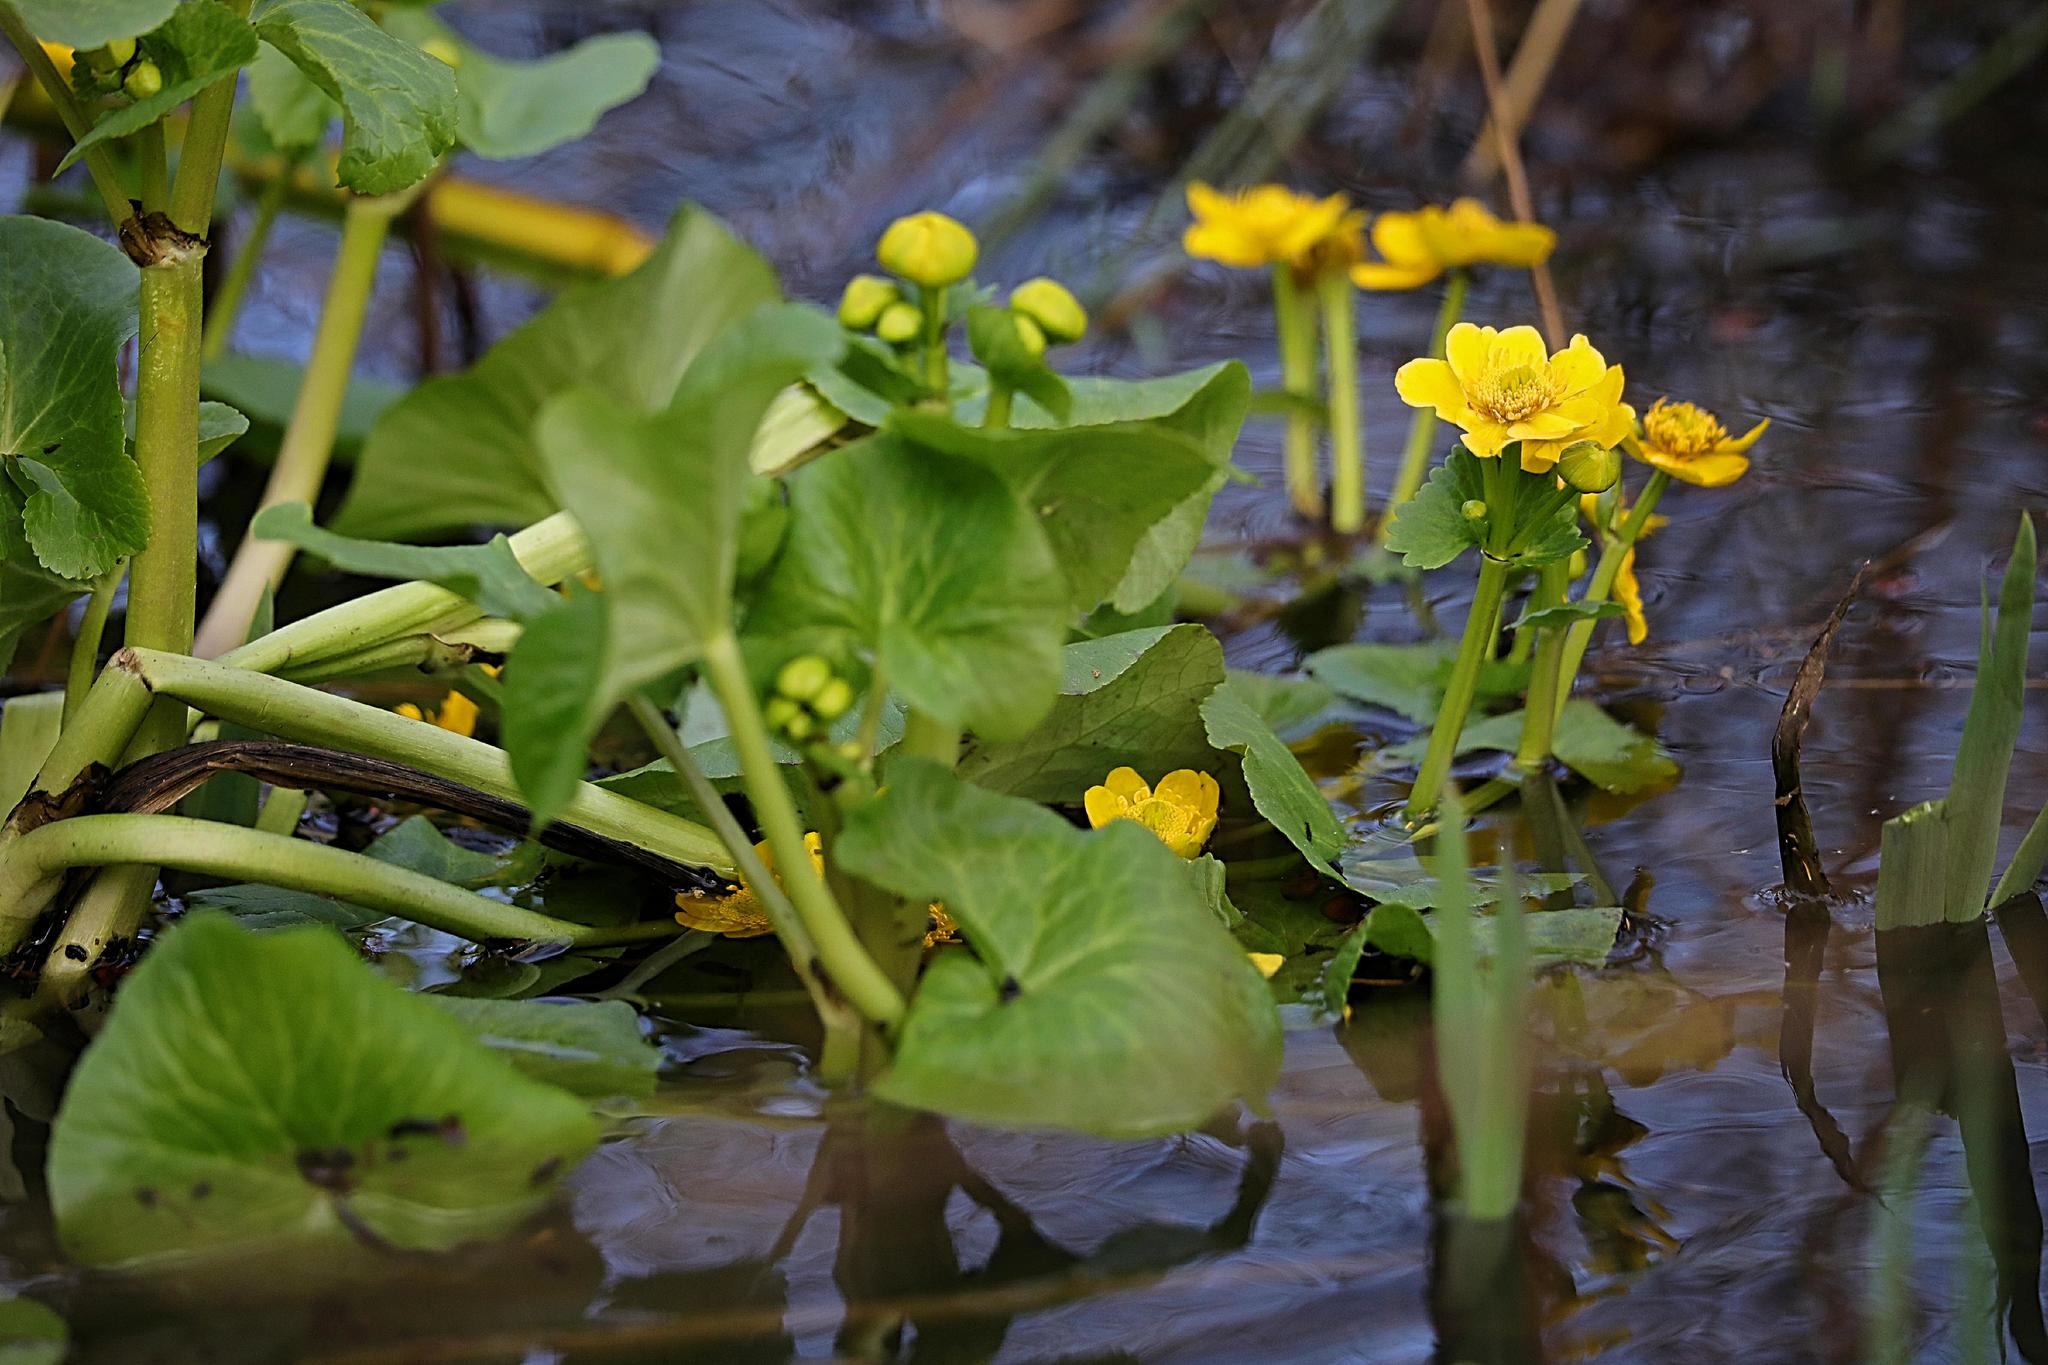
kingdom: Plantae
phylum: Tracheophyta
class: Magnoliopsida
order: Ranunculales
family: Ranunculaceae
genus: Caltha
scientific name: Caltha palustris
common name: Marsh marigold
